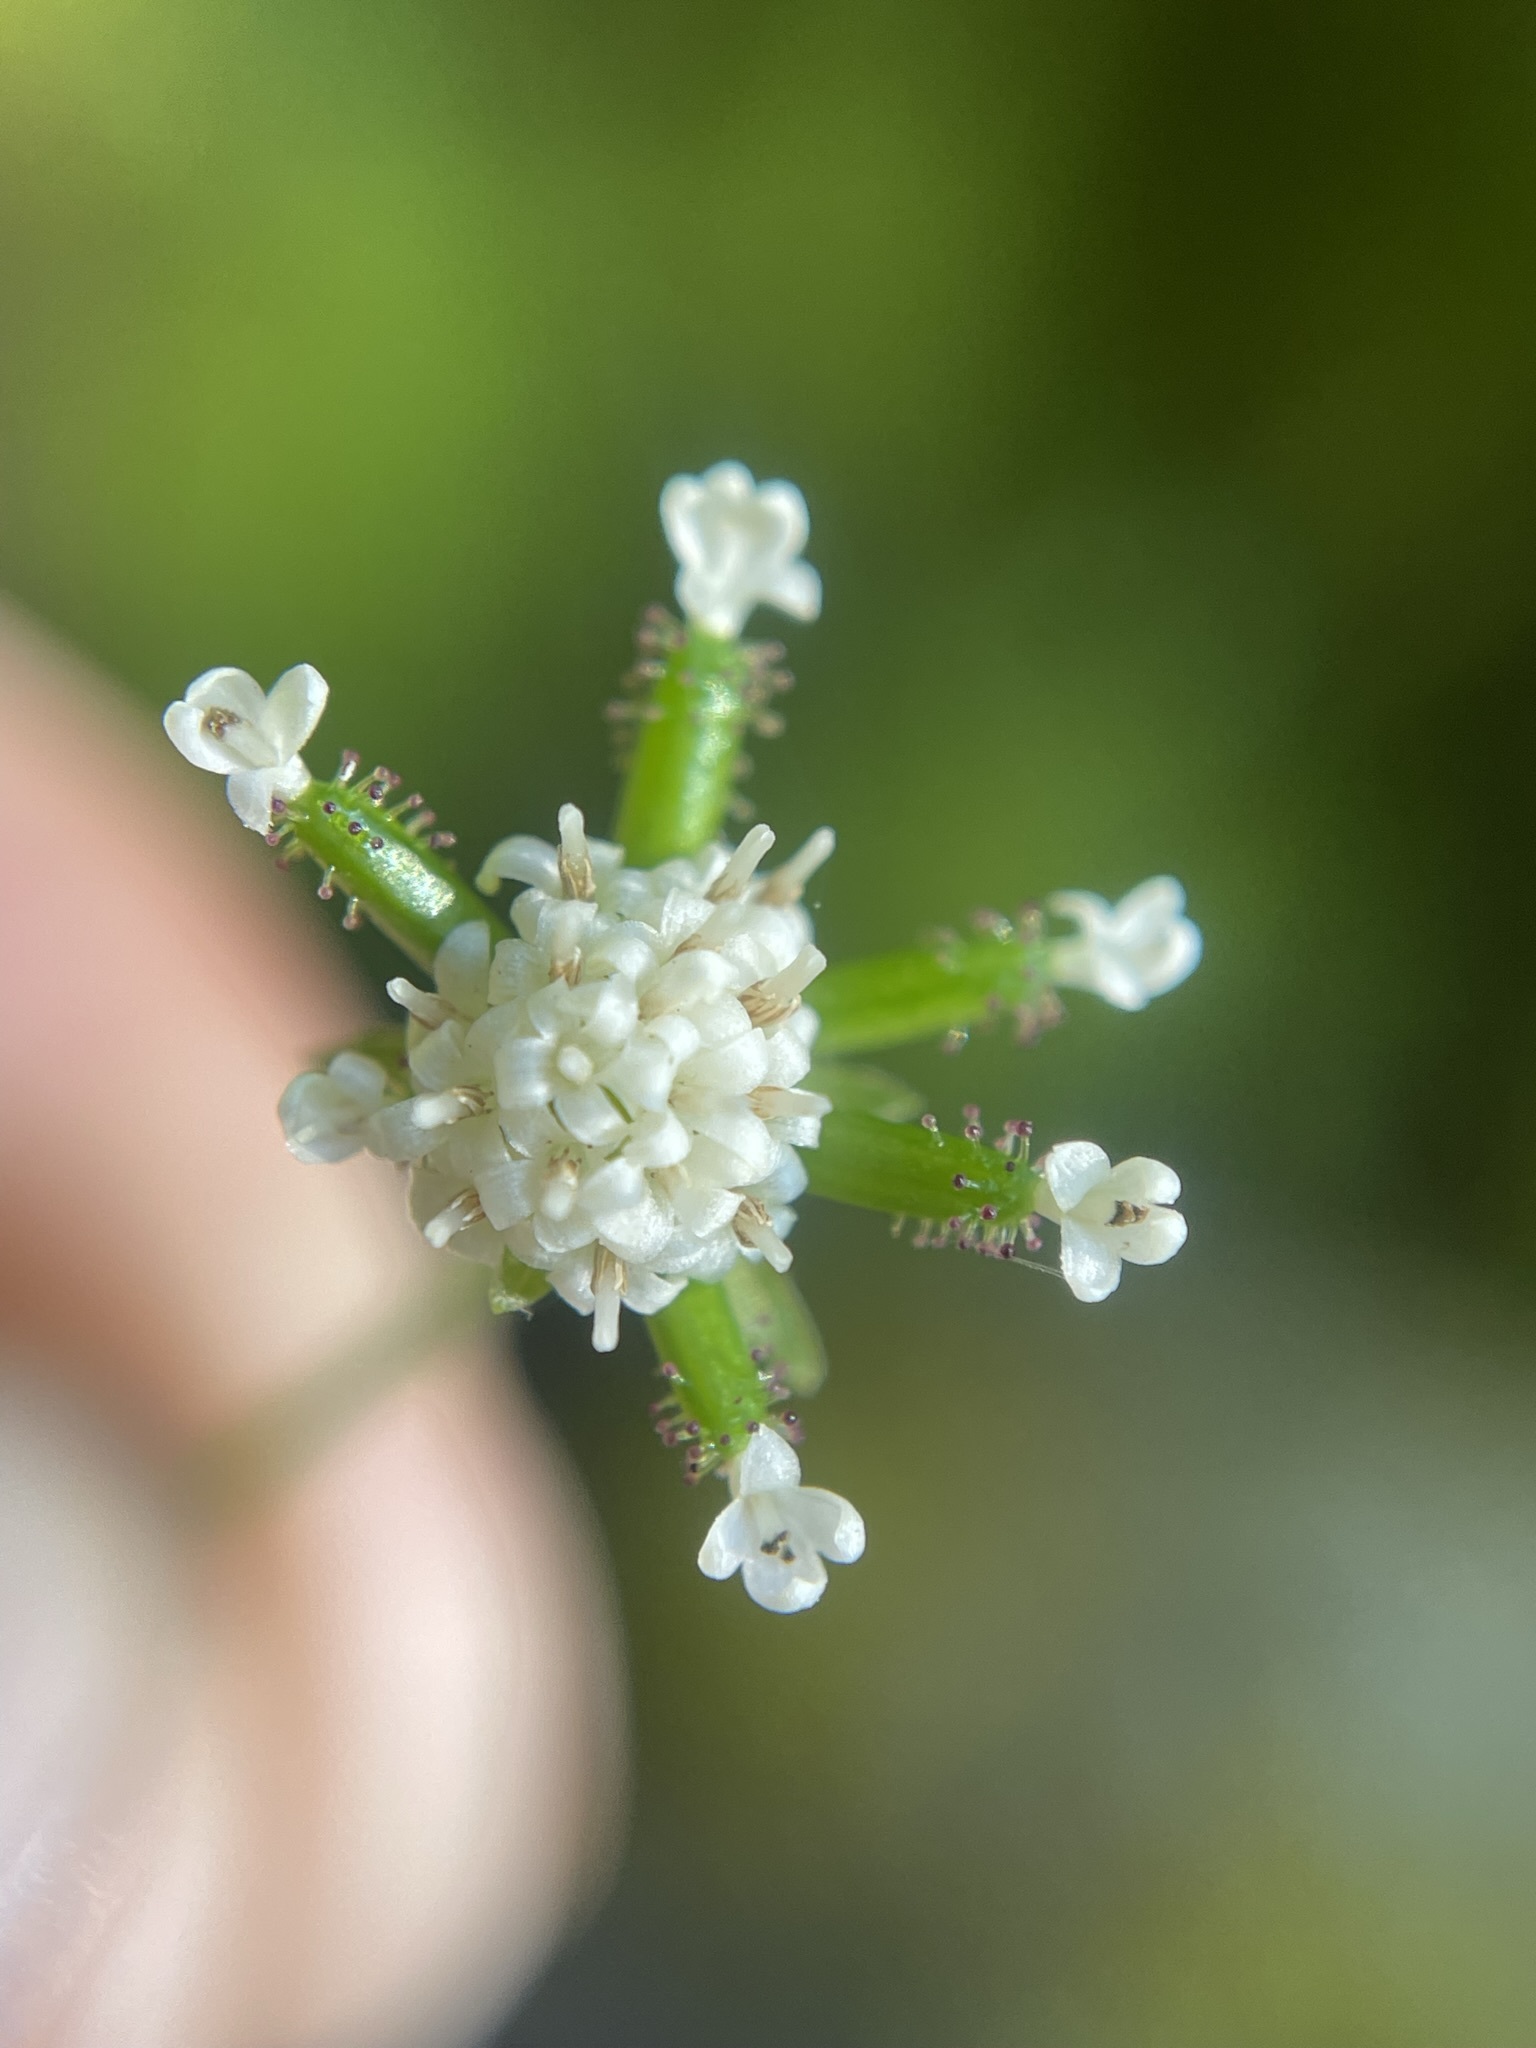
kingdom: Plantae
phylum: Tracheophyta
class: Magnoliopsida
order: Asterales
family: Asteraceae
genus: Adenocaulon
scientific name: Adenocaulon bicolor
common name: Trailplant
